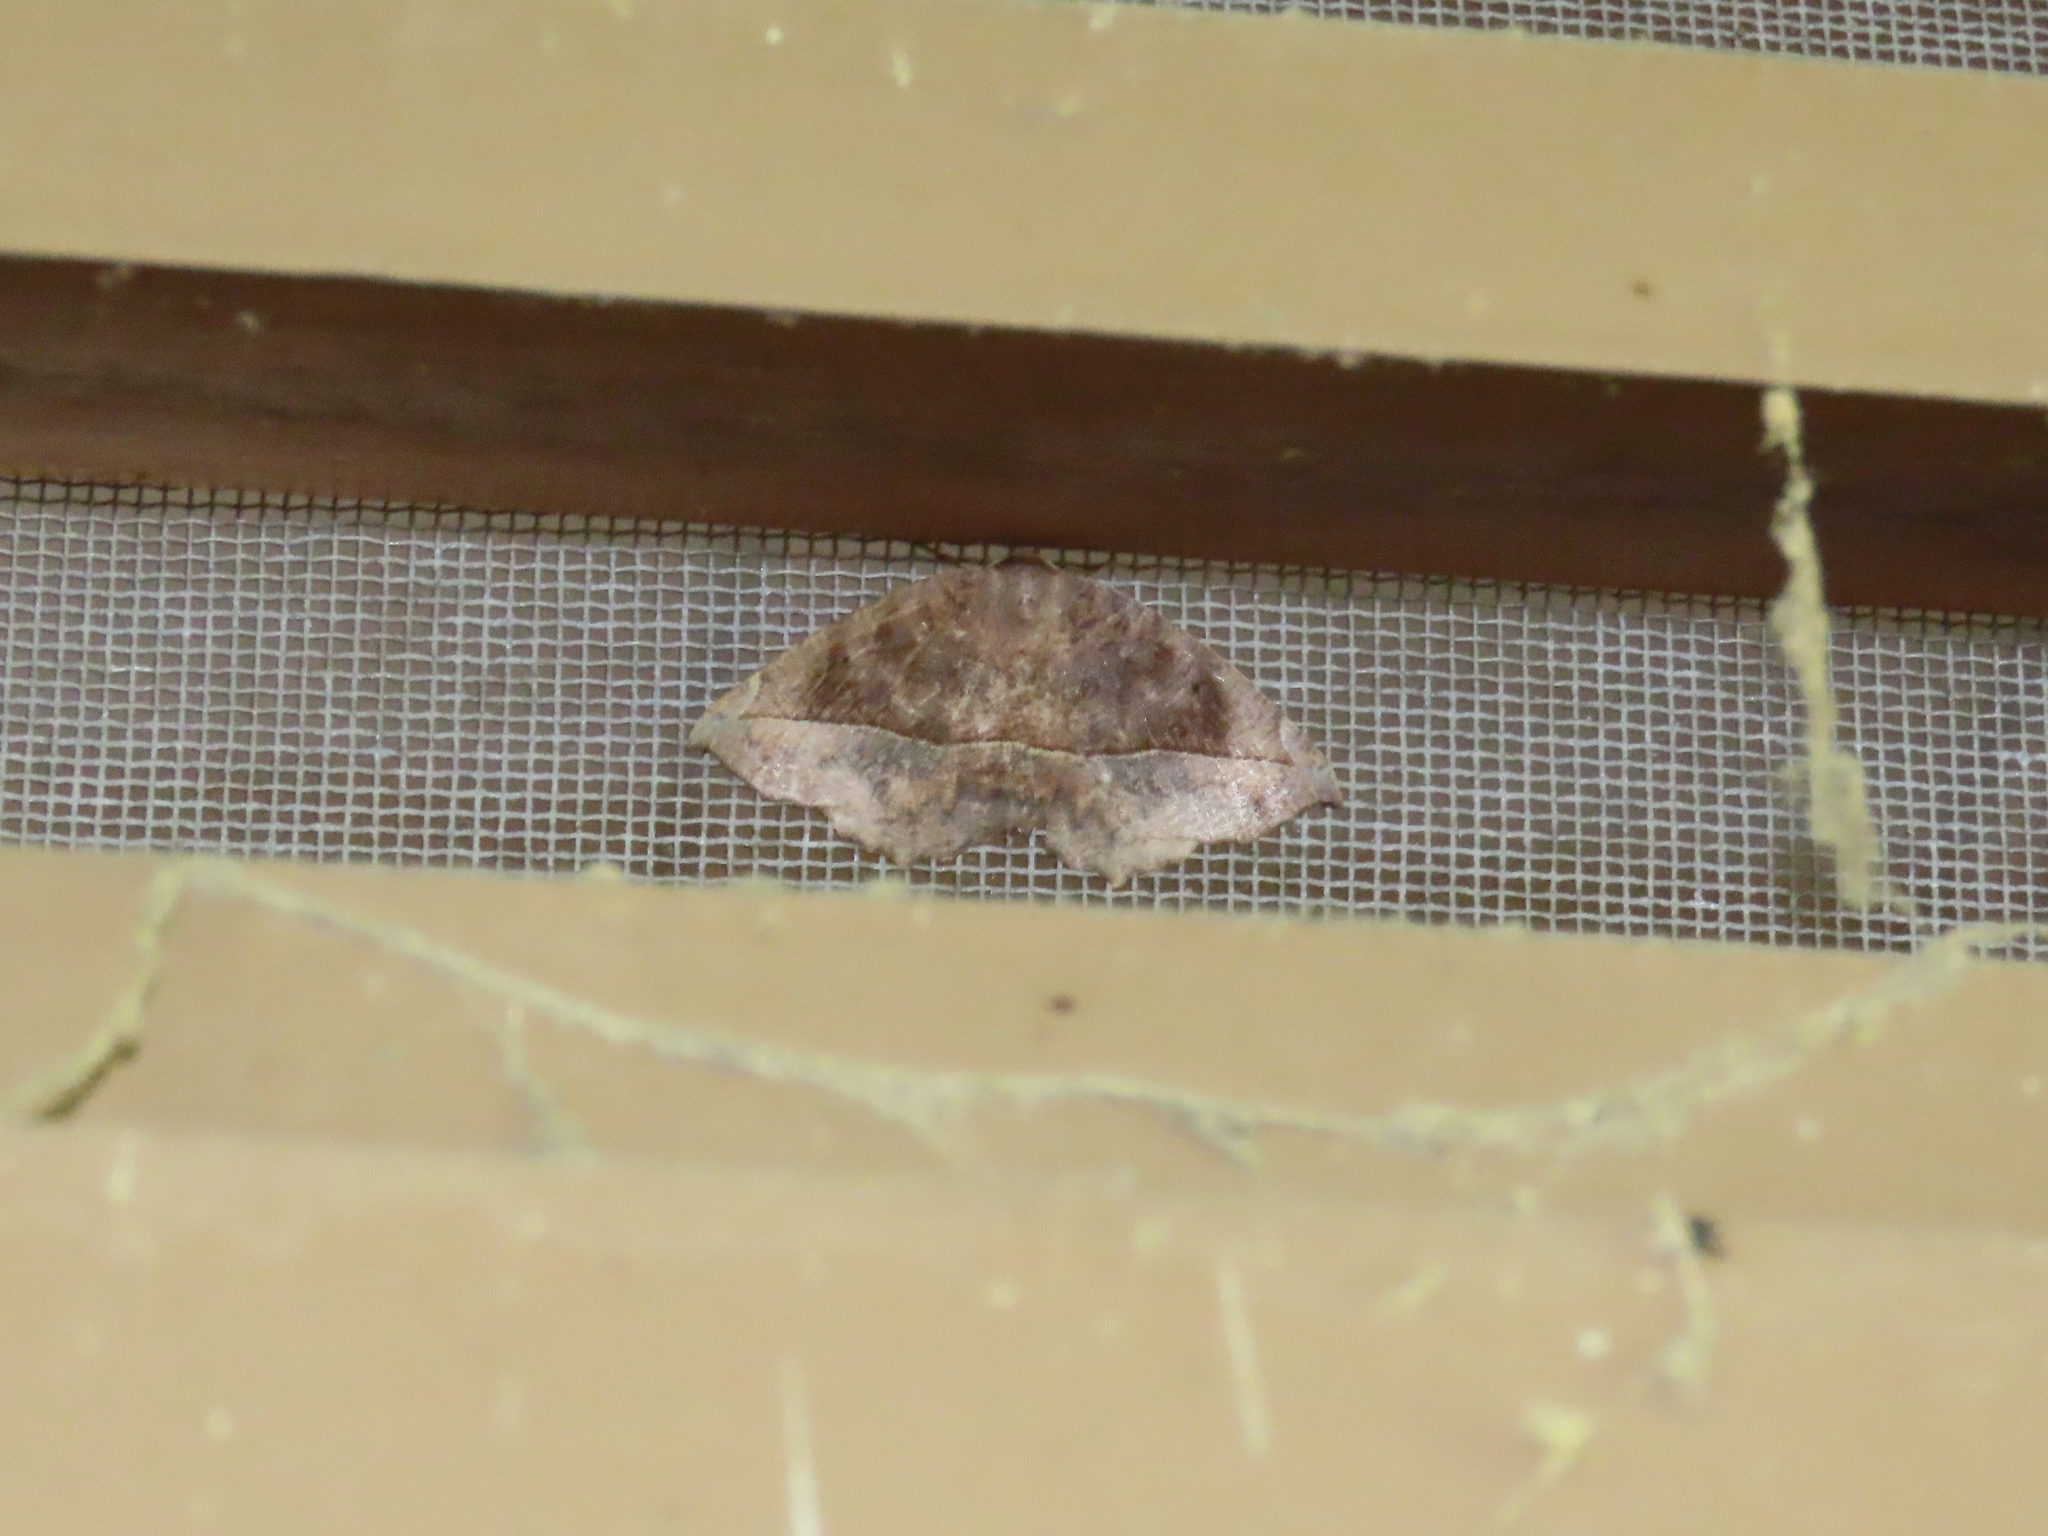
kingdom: Animalia
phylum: Arthropoda
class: Insecta
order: Lepidoptera
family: Geometridae
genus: Eutrapela
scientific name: Eutrapela clemataria
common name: Curved-toothed geometer
